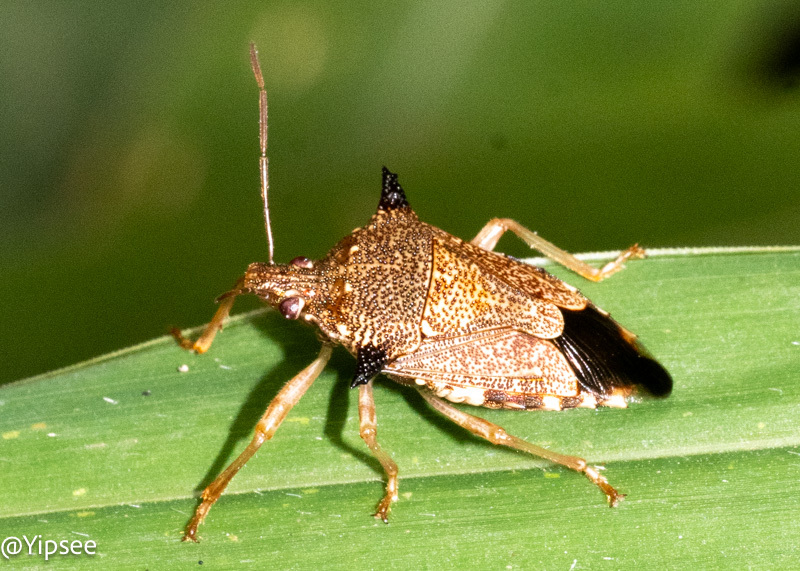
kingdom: Animalia
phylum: Arthropoda
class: Insecta
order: Hemiptera
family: Pentatomidae
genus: Eocanthecona
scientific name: Eocanthecona
